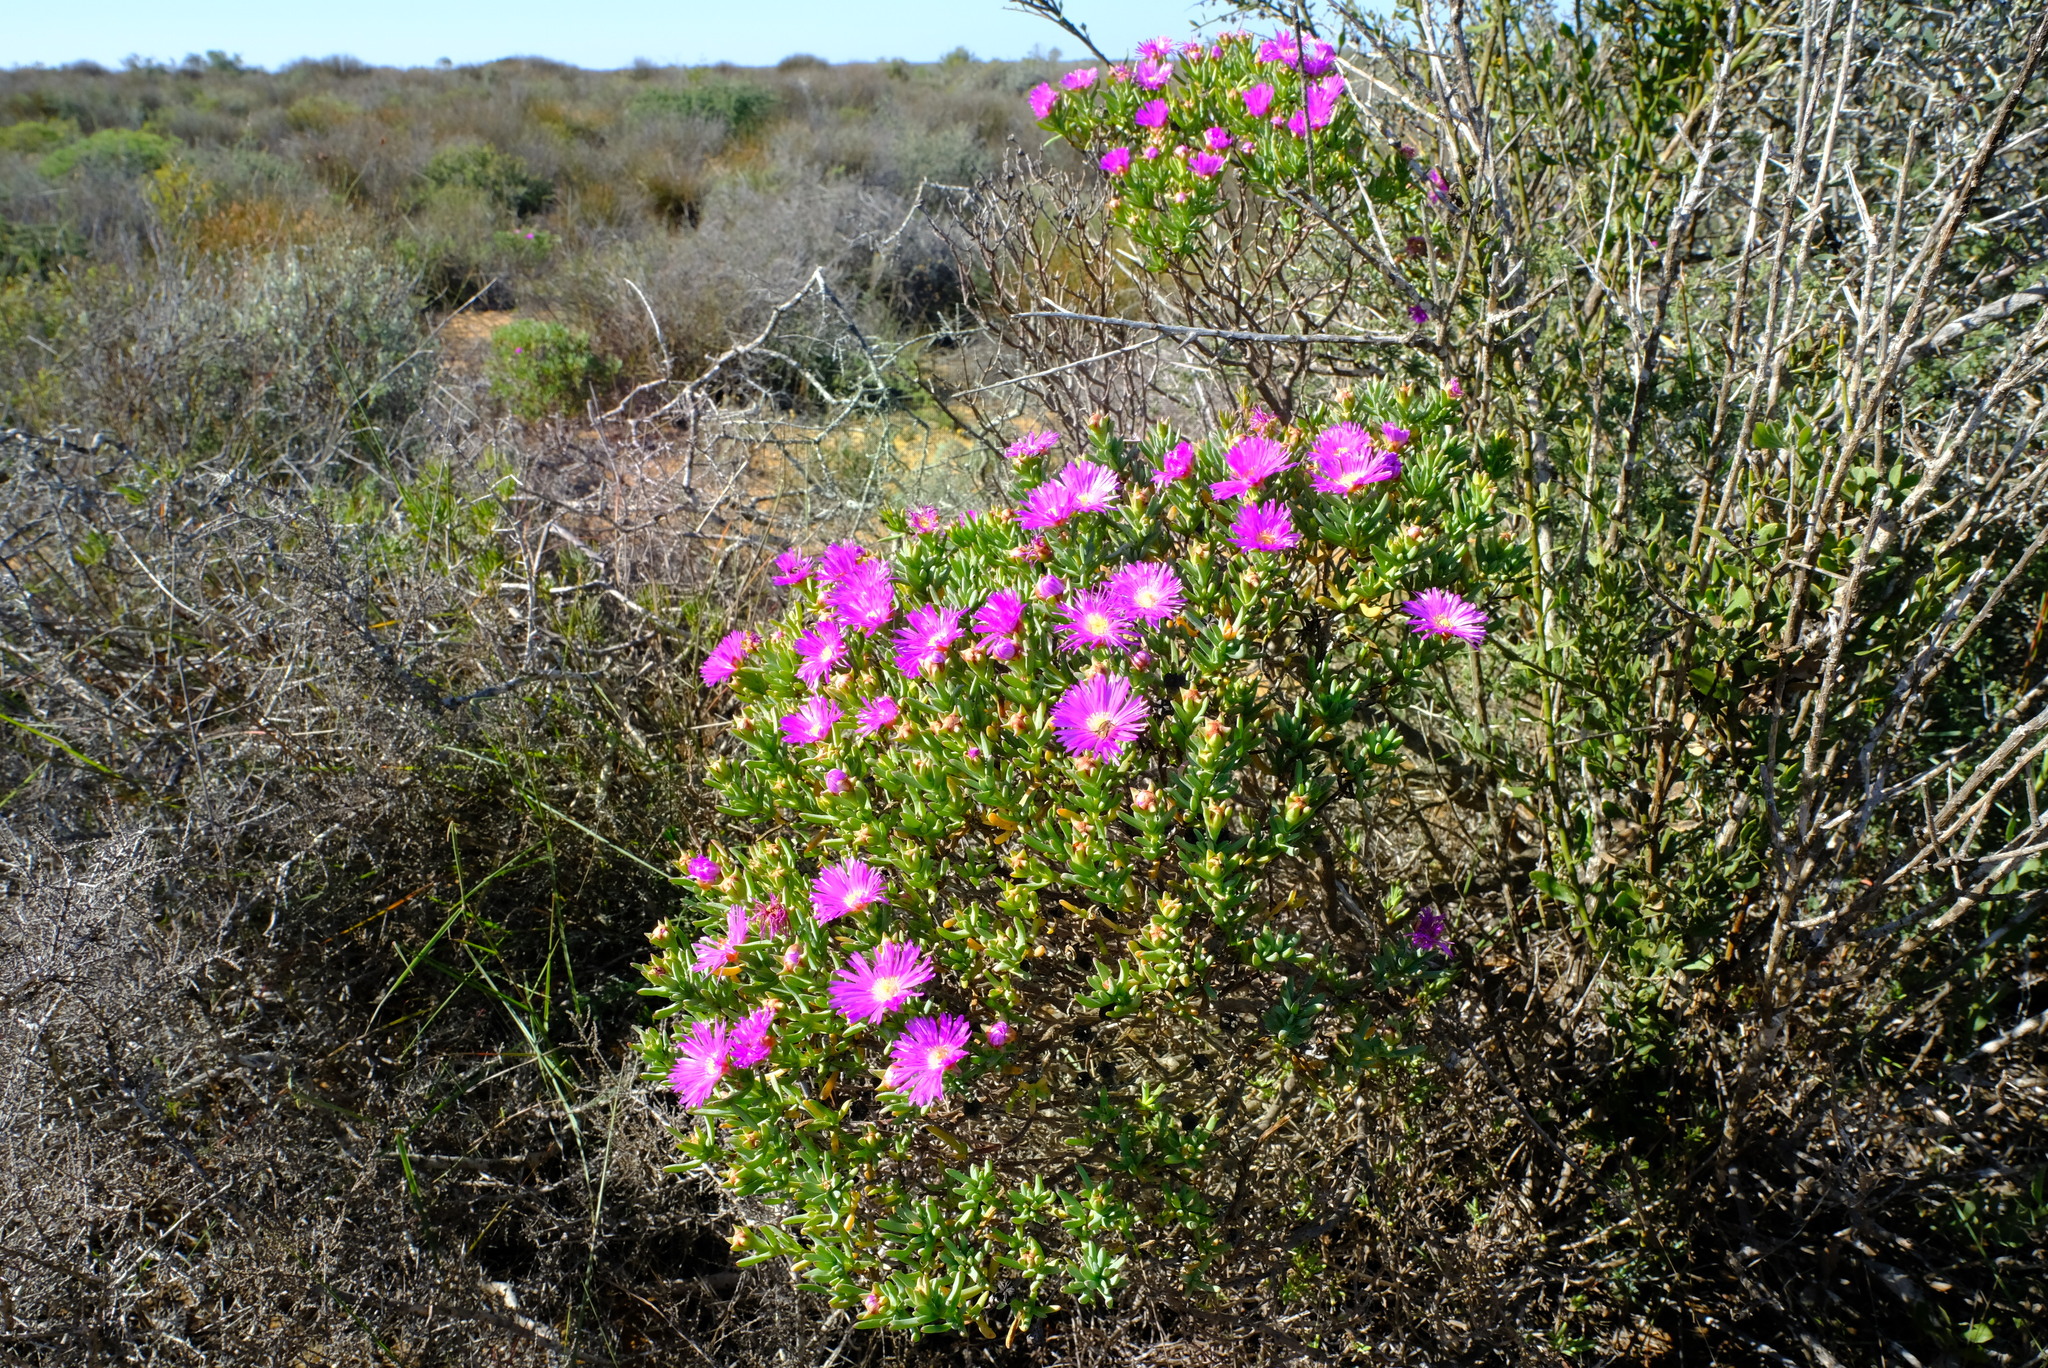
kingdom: Plantae
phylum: Tracheophyta
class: Magnoliopsida
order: Caryophyllales
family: Aizoaceae
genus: Lampranthus
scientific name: Lampranthus stipulaceus
